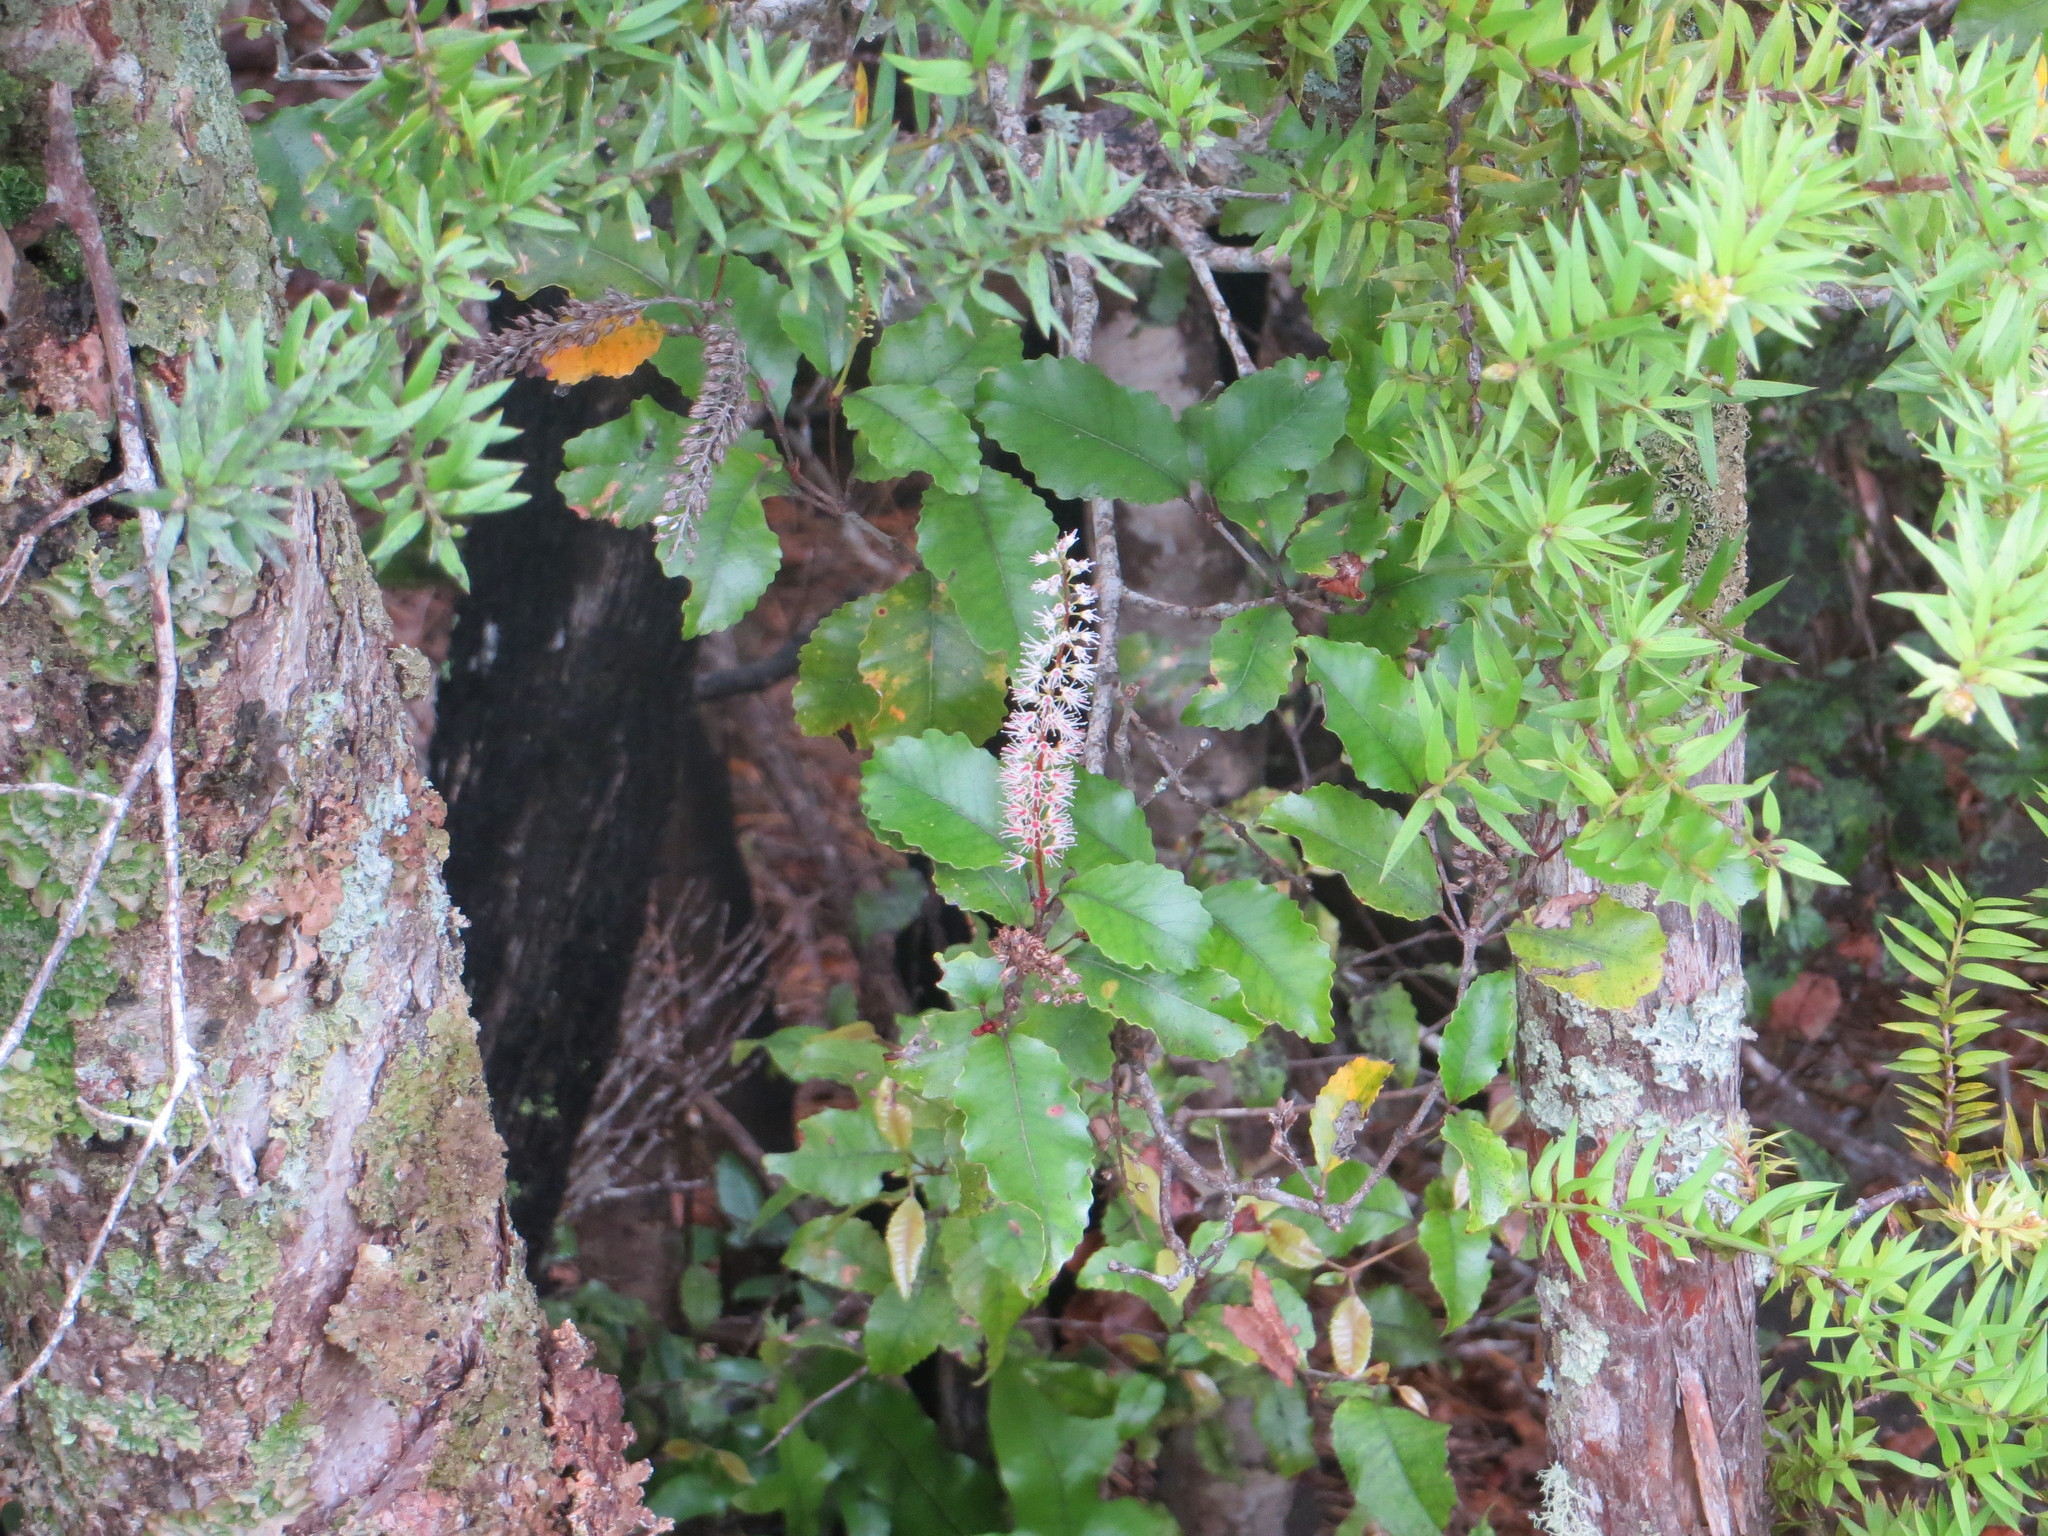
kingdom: Plantae
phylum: Tracheophyta
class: Magnoliopsida
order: Oxalidales
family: Cunoniaceae
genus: Pterophylla
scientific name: Pterophylla racemosa
